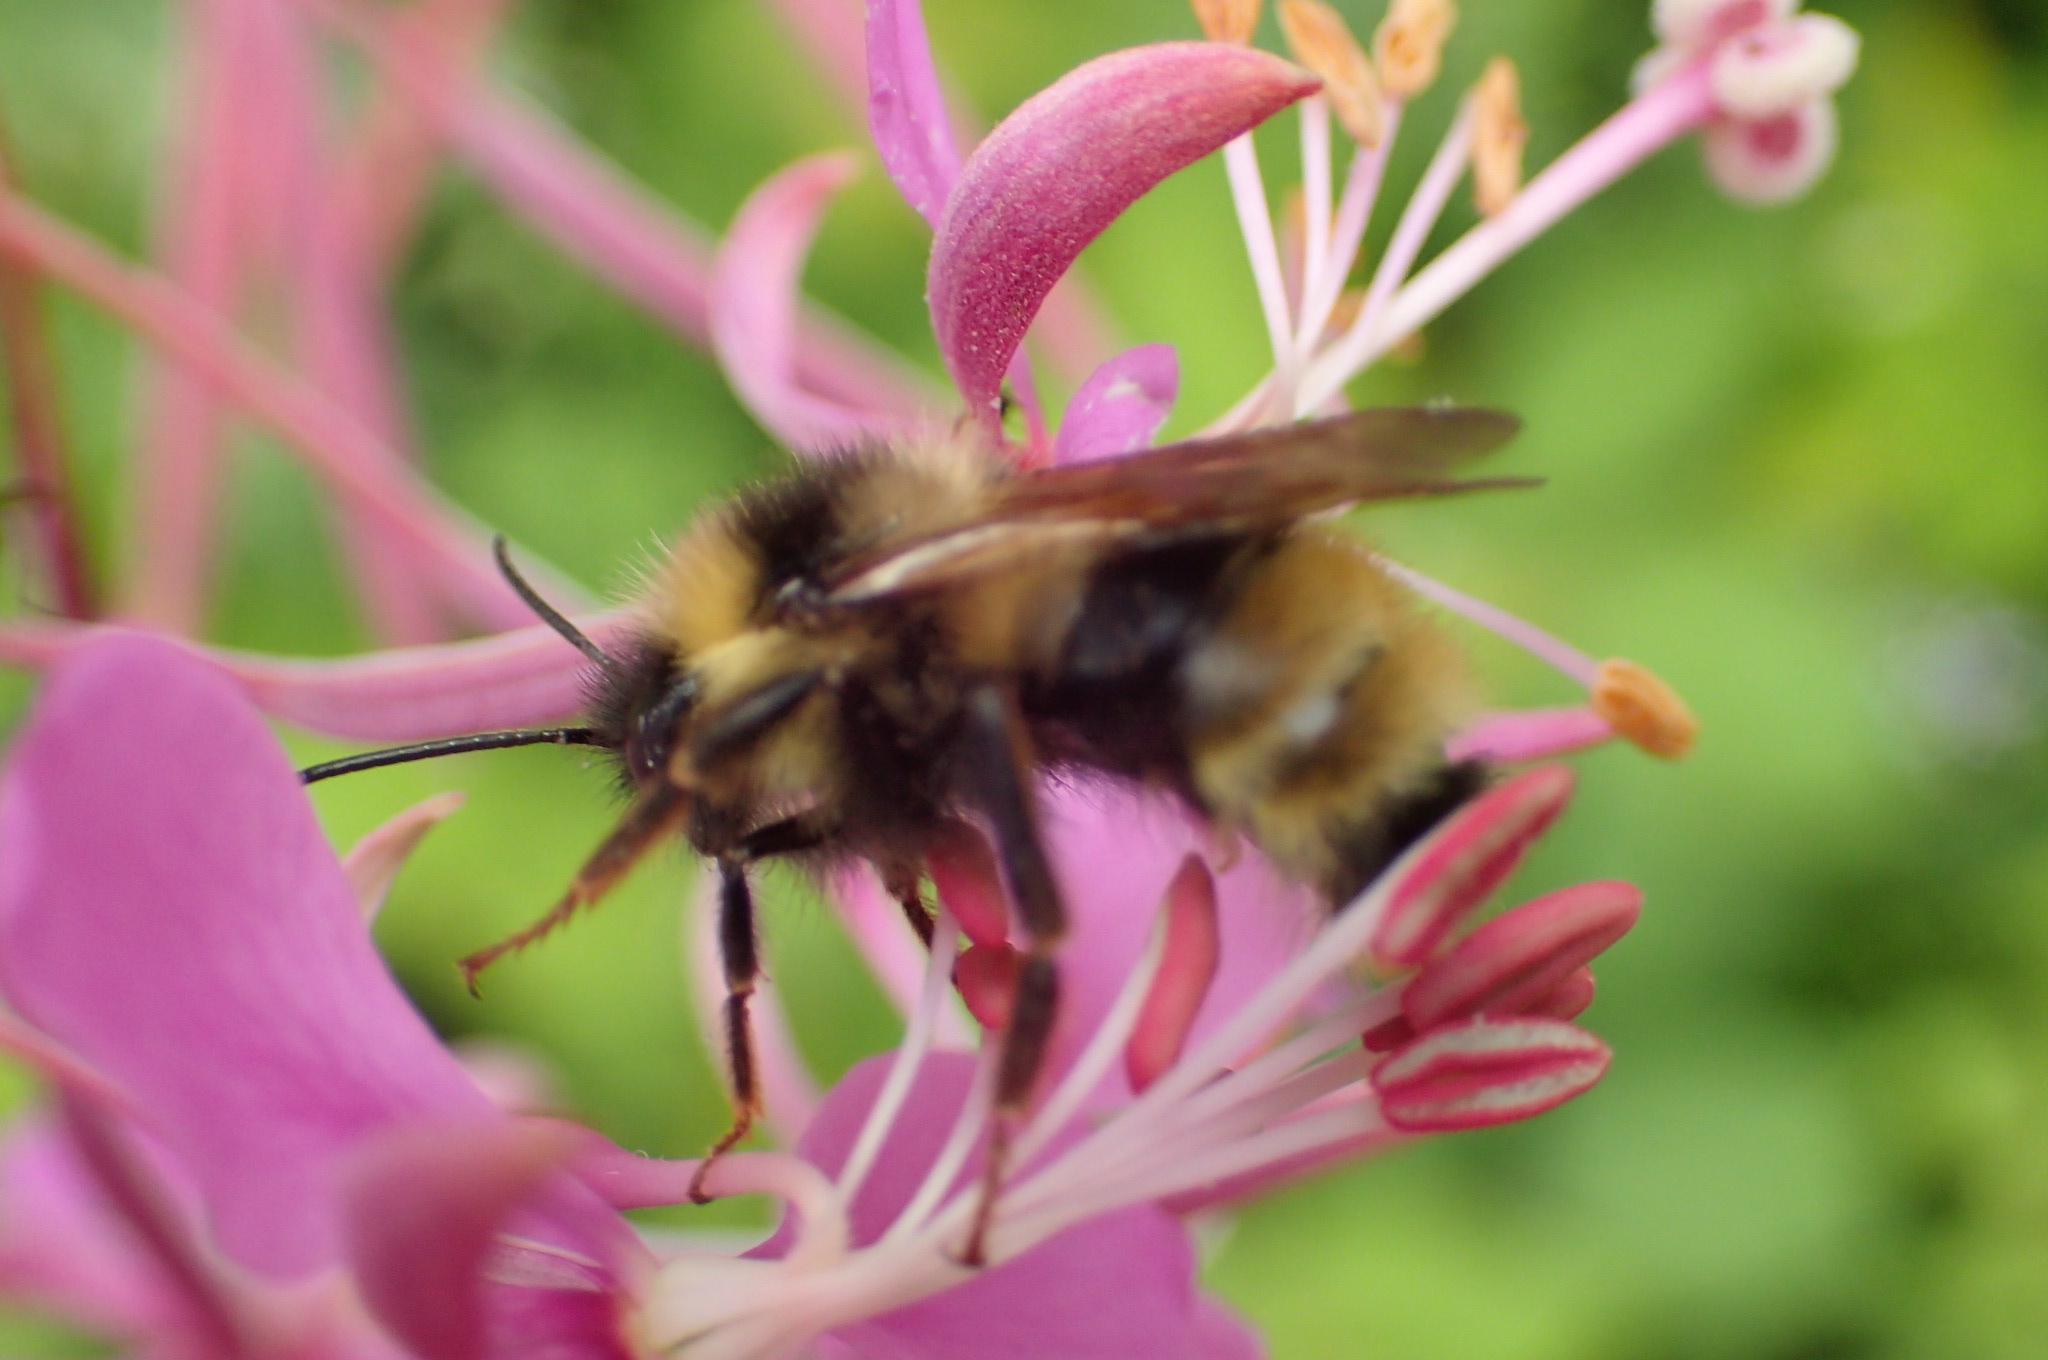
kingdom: Animalia
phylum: Arthropoda
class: Insecta
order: Hymenoptera
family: Apidae
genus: Bombus
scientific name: Bombus flavidus
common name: Fernald cuckoo bumble bee
